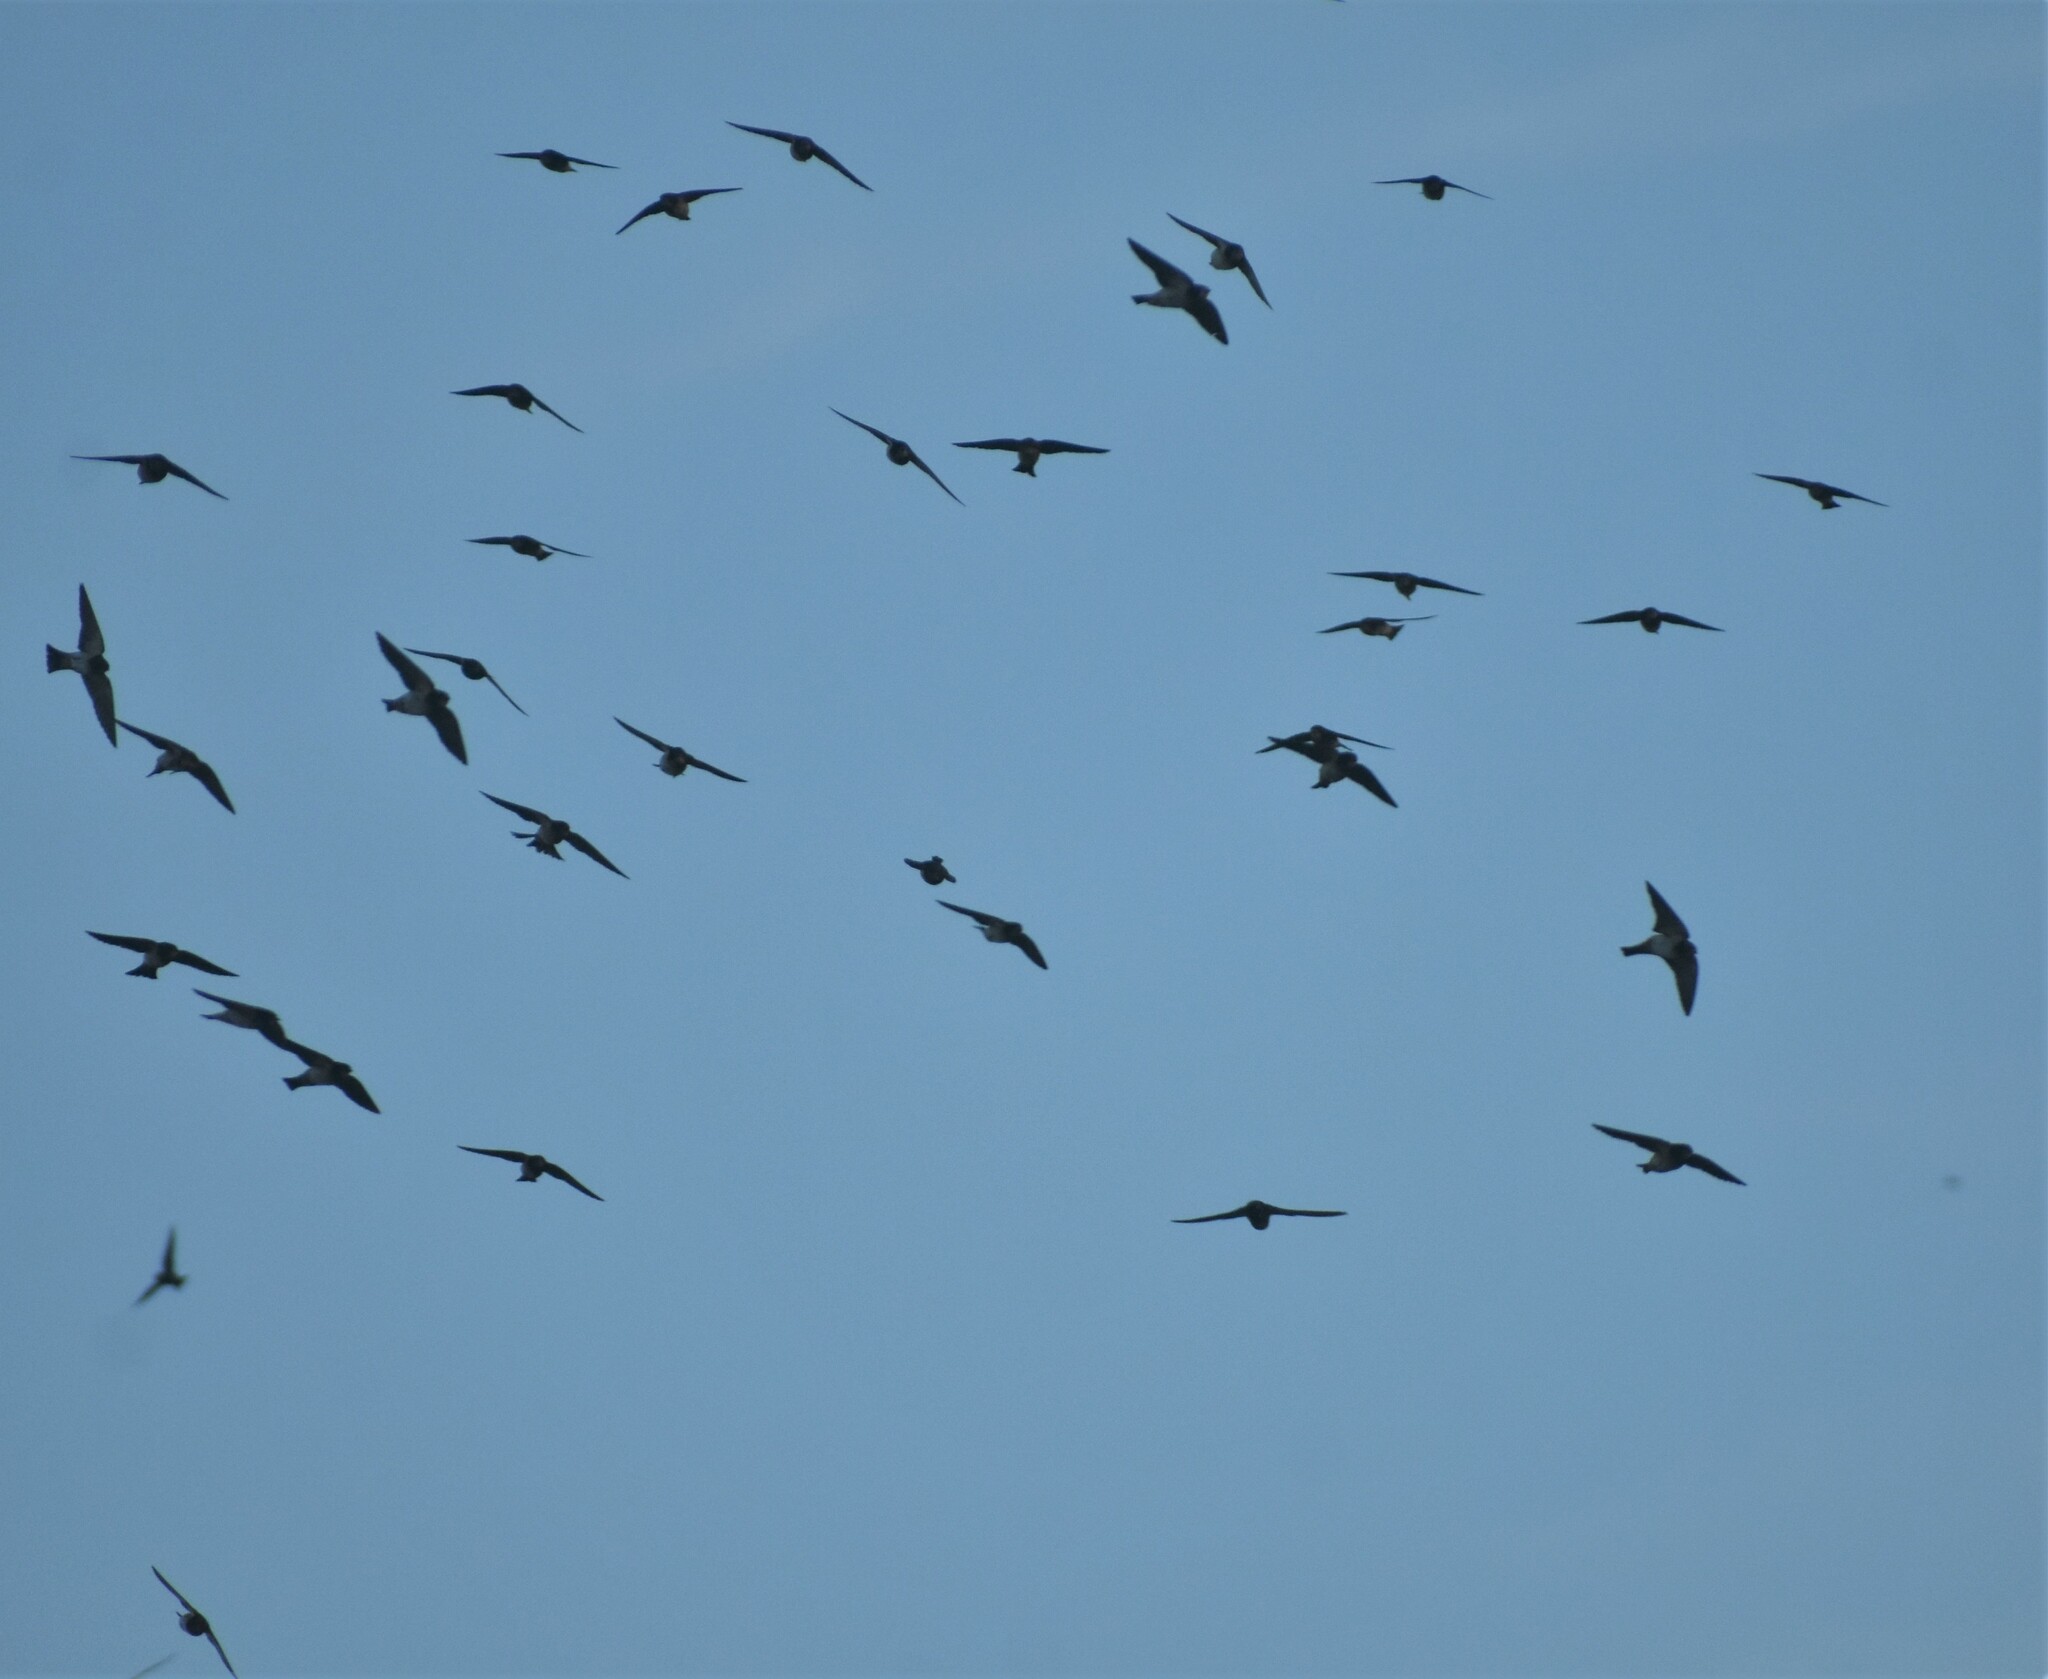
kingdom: Animalia
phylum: Chordata
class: Aves
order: Passeriformes
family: Hirundinidae
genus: Petrochelidon
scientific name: Petrochelidon spilodera
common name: South african swallow
